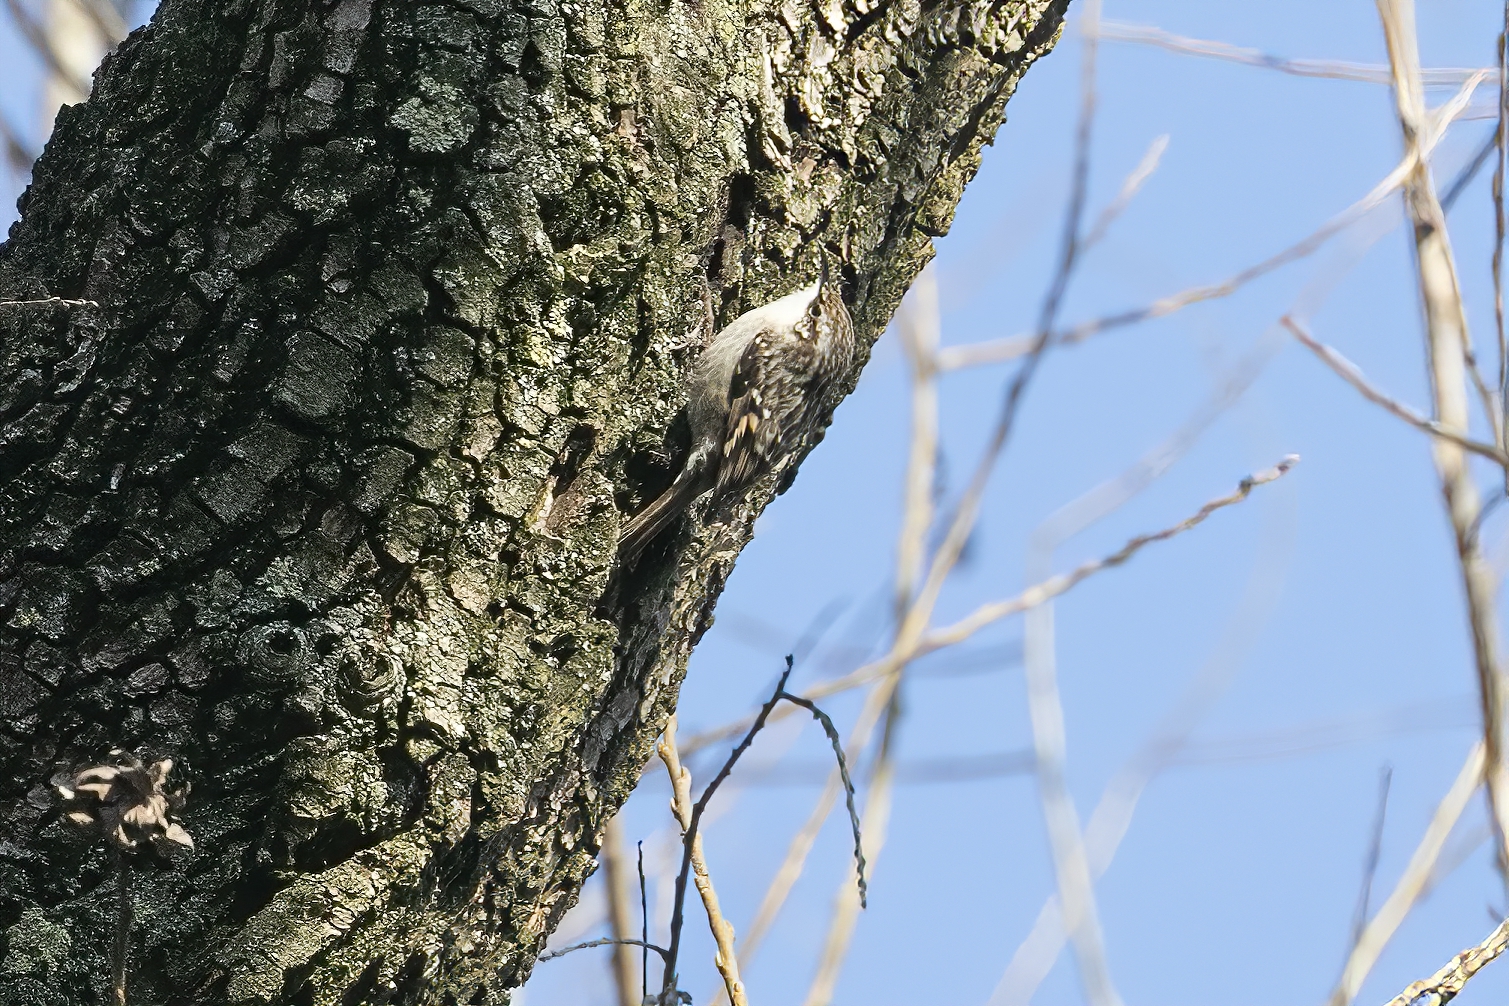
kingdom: Animalia
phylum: Chordata
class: Aves
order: Passeriformes
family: Certhiidae
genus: Certhia
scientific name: Certhia brachydactyla
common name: Short-toed treecreeper
